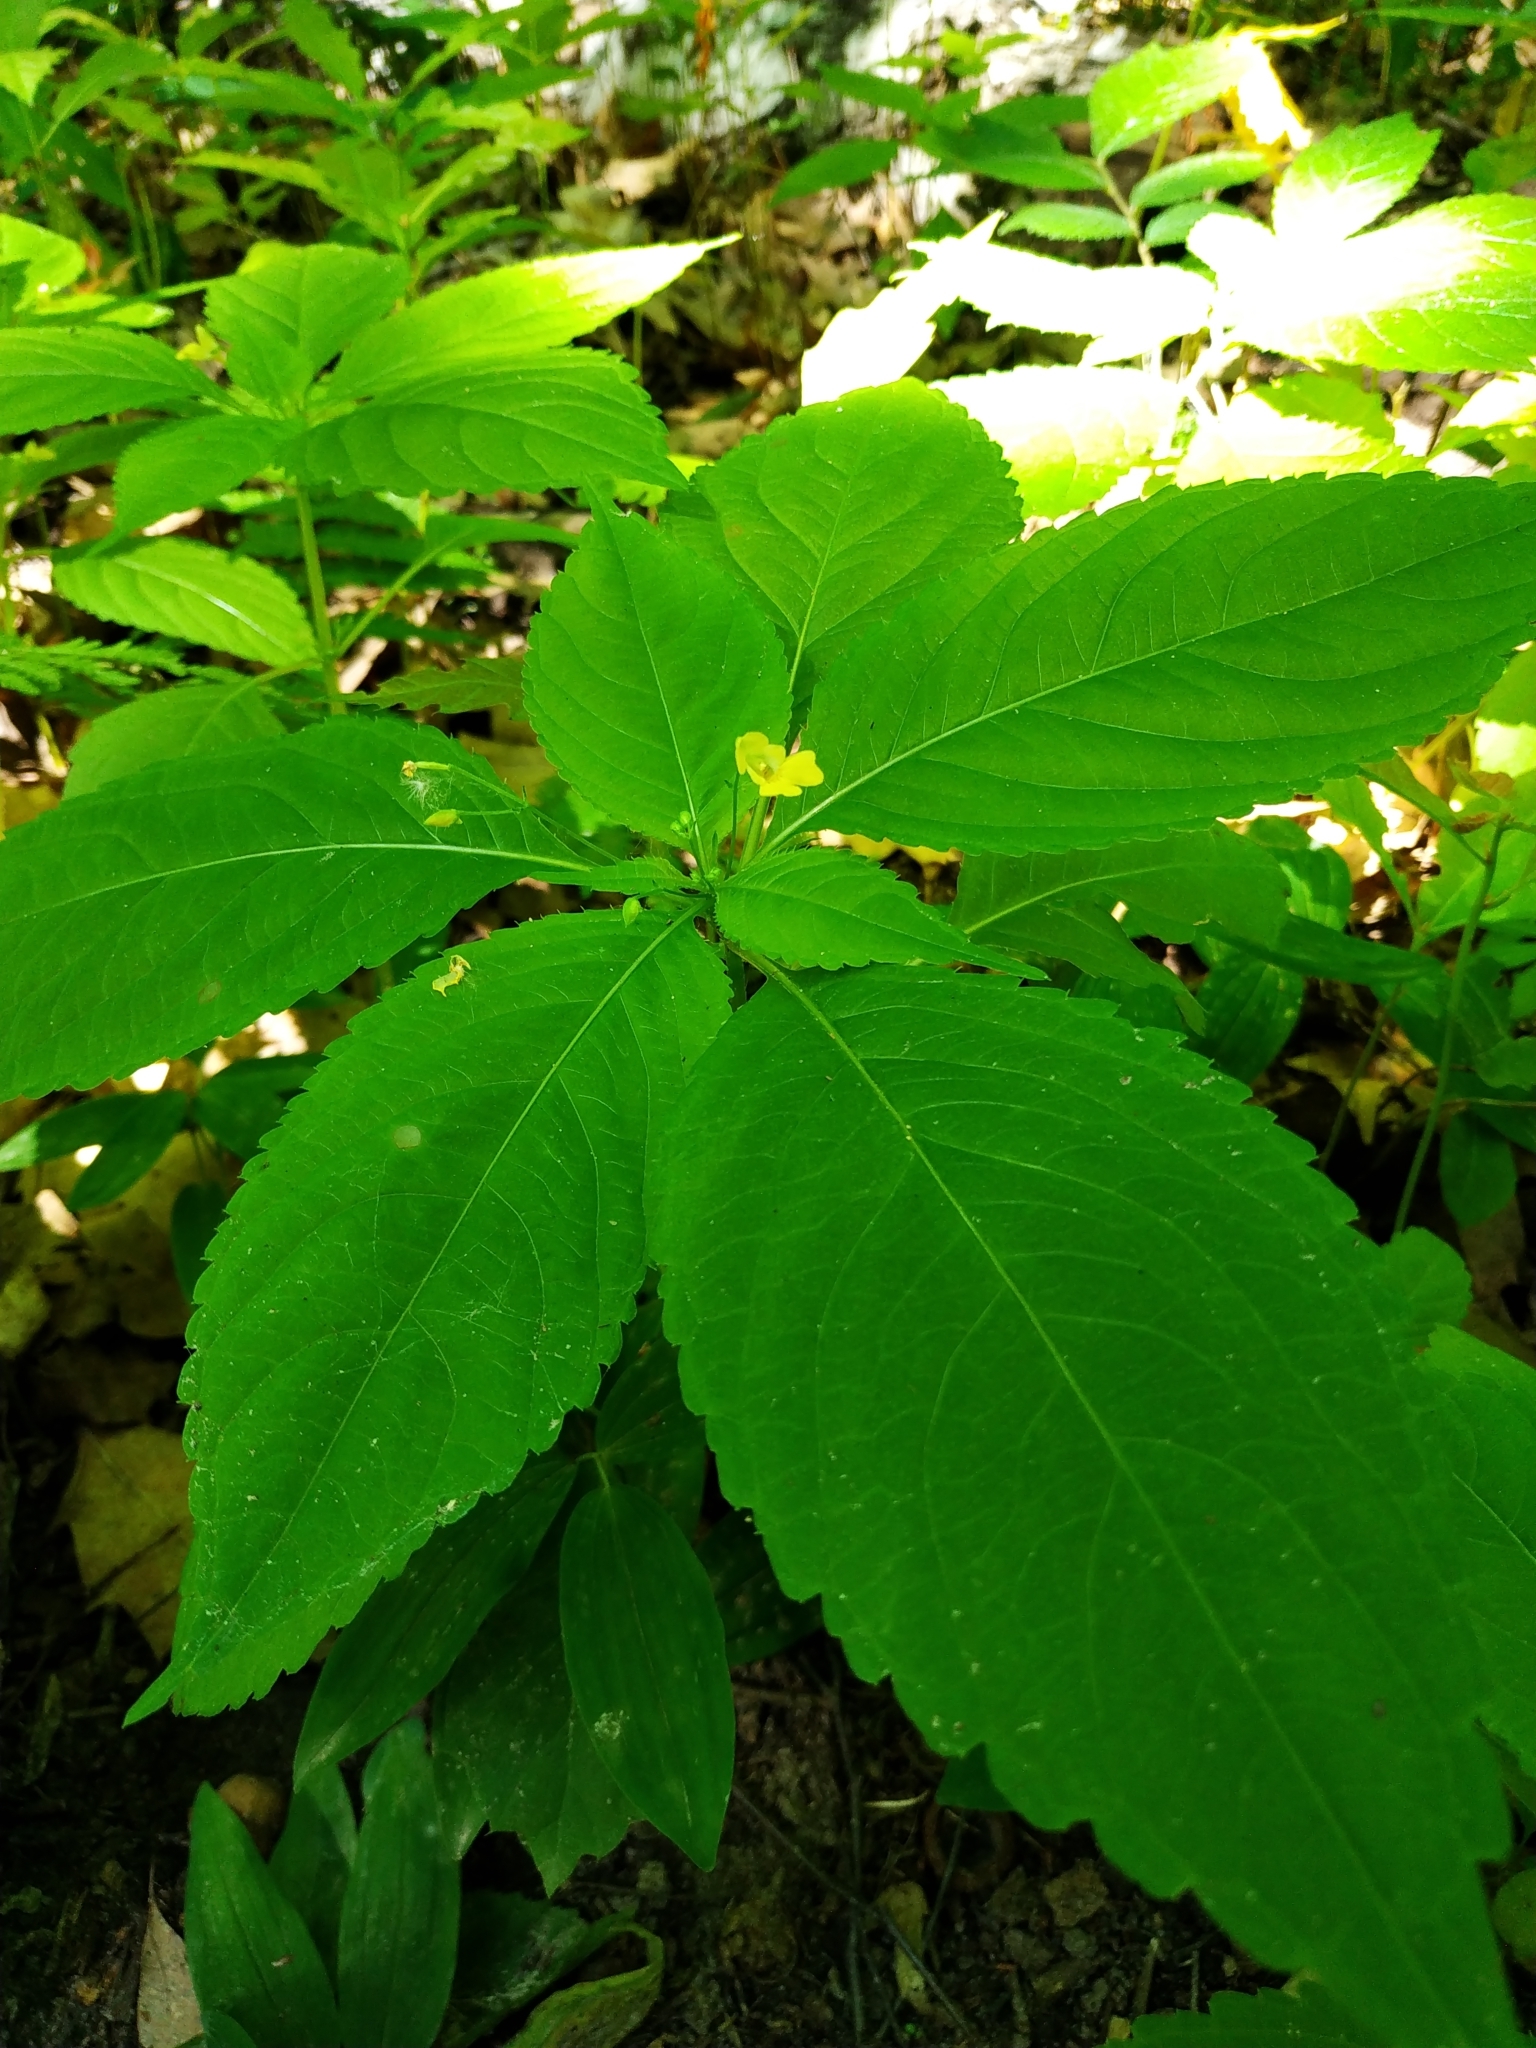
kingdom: Plantae
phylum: Tracheophyta
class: Magnoliopsida
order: Ericales
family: Balsaminaceae
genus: Impatiens
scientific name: Impatiens parviflora
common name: Small balsam
